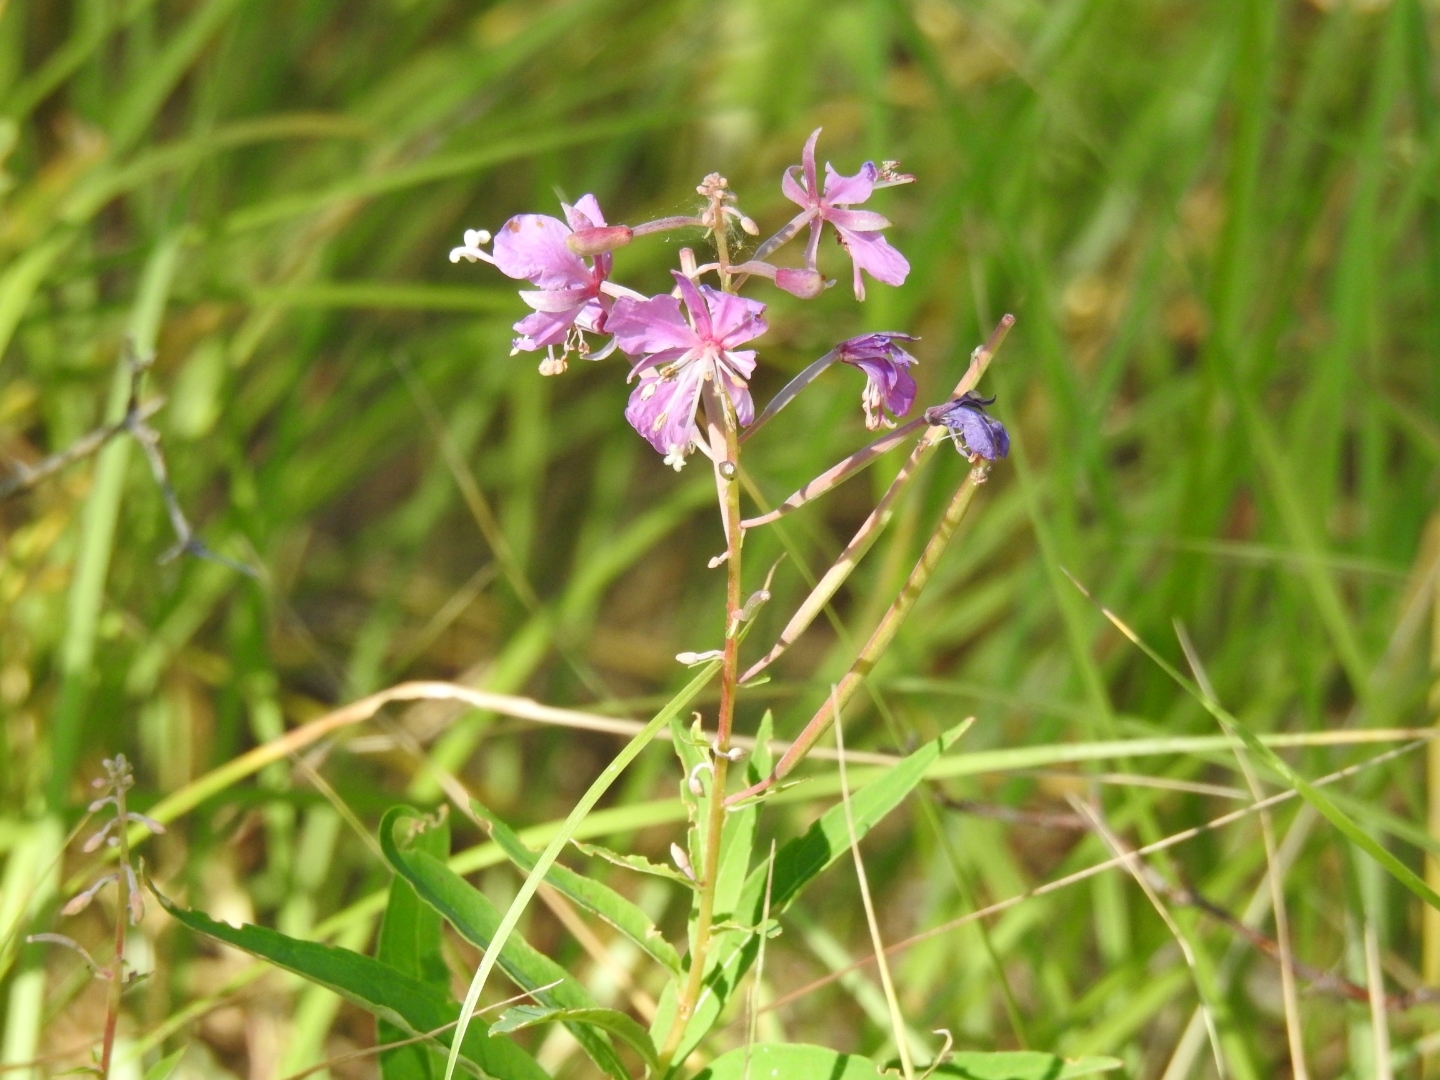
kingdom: Plantae
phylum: Tracheophyta
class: Magnoliopsida
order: Myrtales
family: Onagraceae
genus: Chamaenerion
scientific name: Chamaenerion angustifolium
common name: Fireweed
